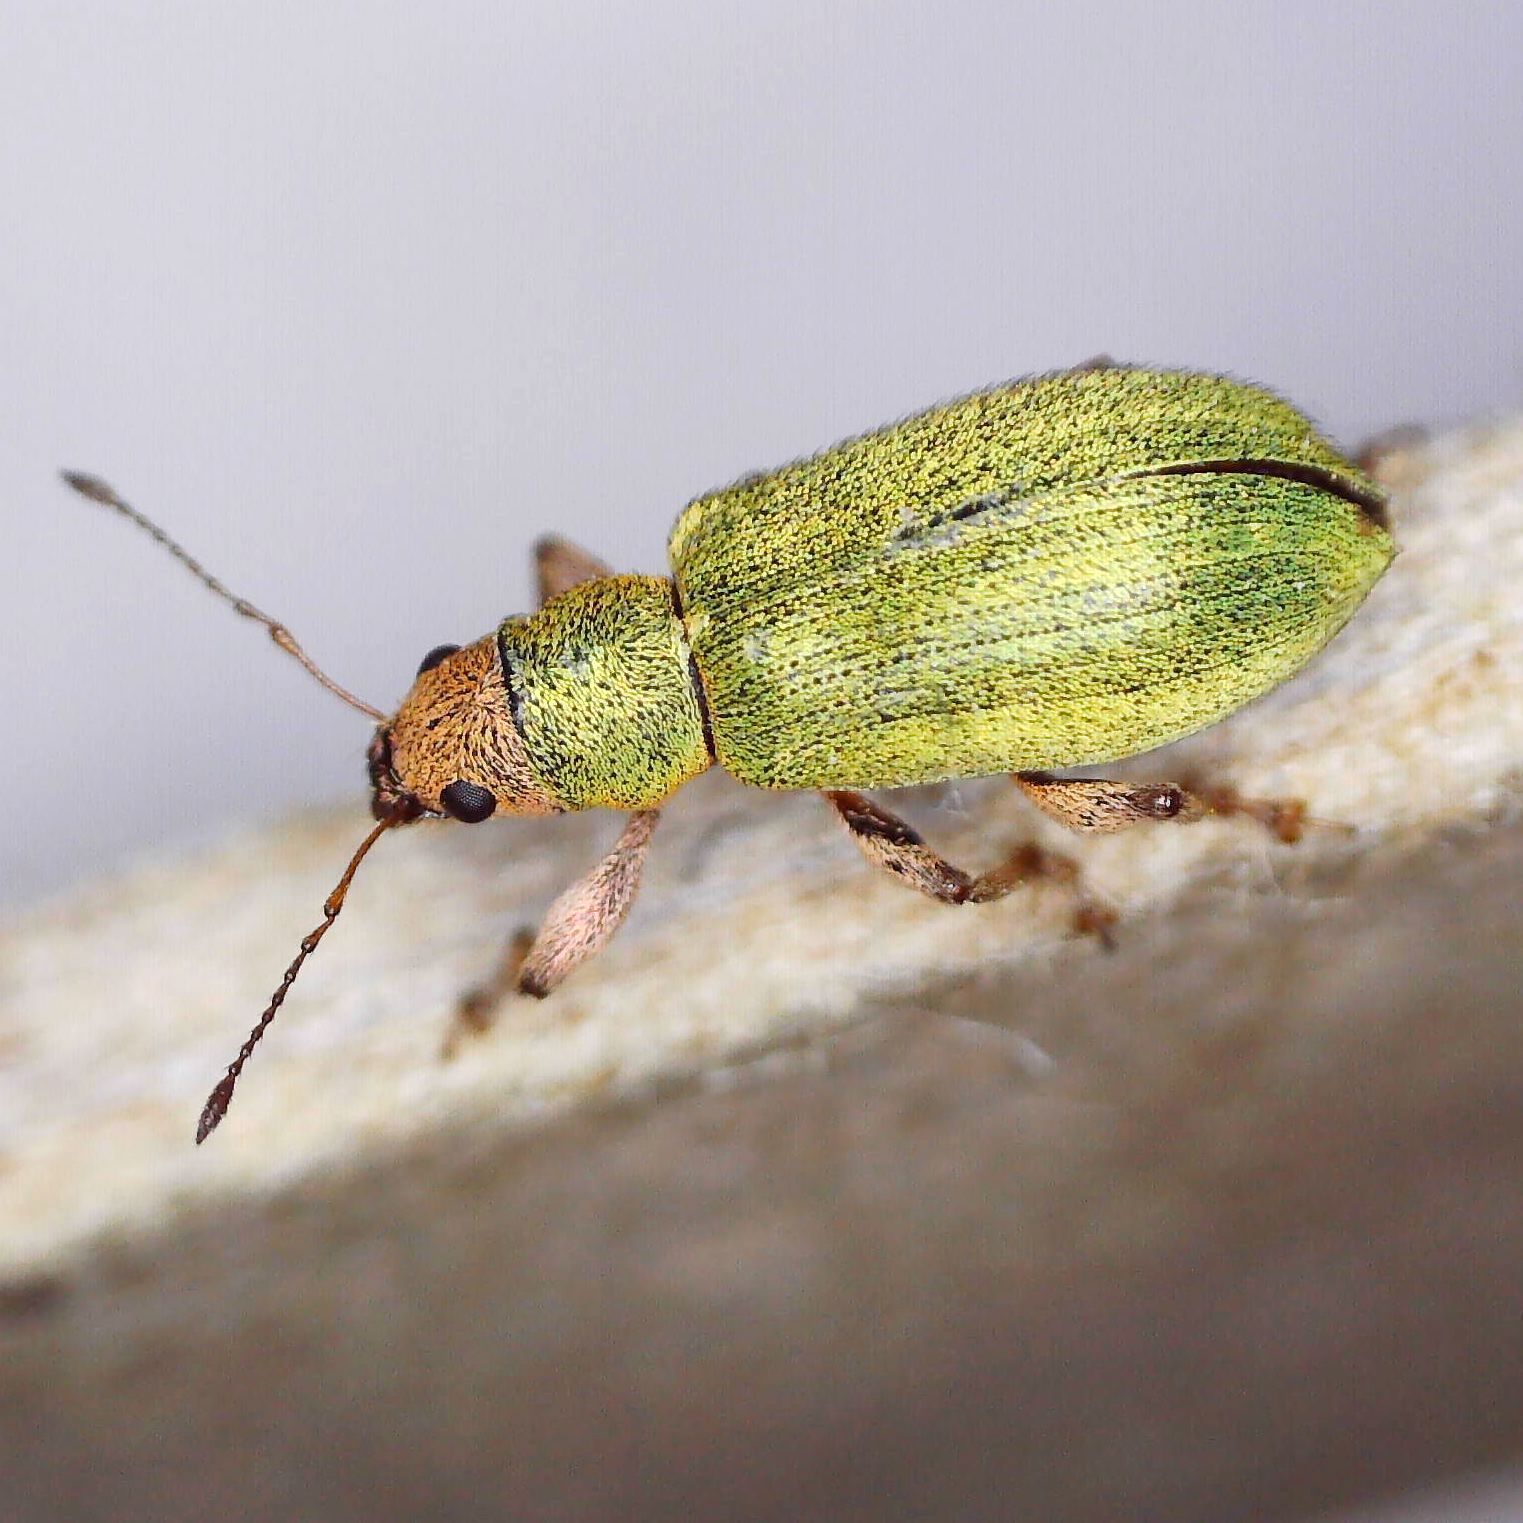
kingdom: Animalia
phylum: Arthropoda
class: Insecta
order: Coleoptera
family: Curculionidae
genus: Pachyrhinus
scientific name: Pachyrhinus lethierryi
